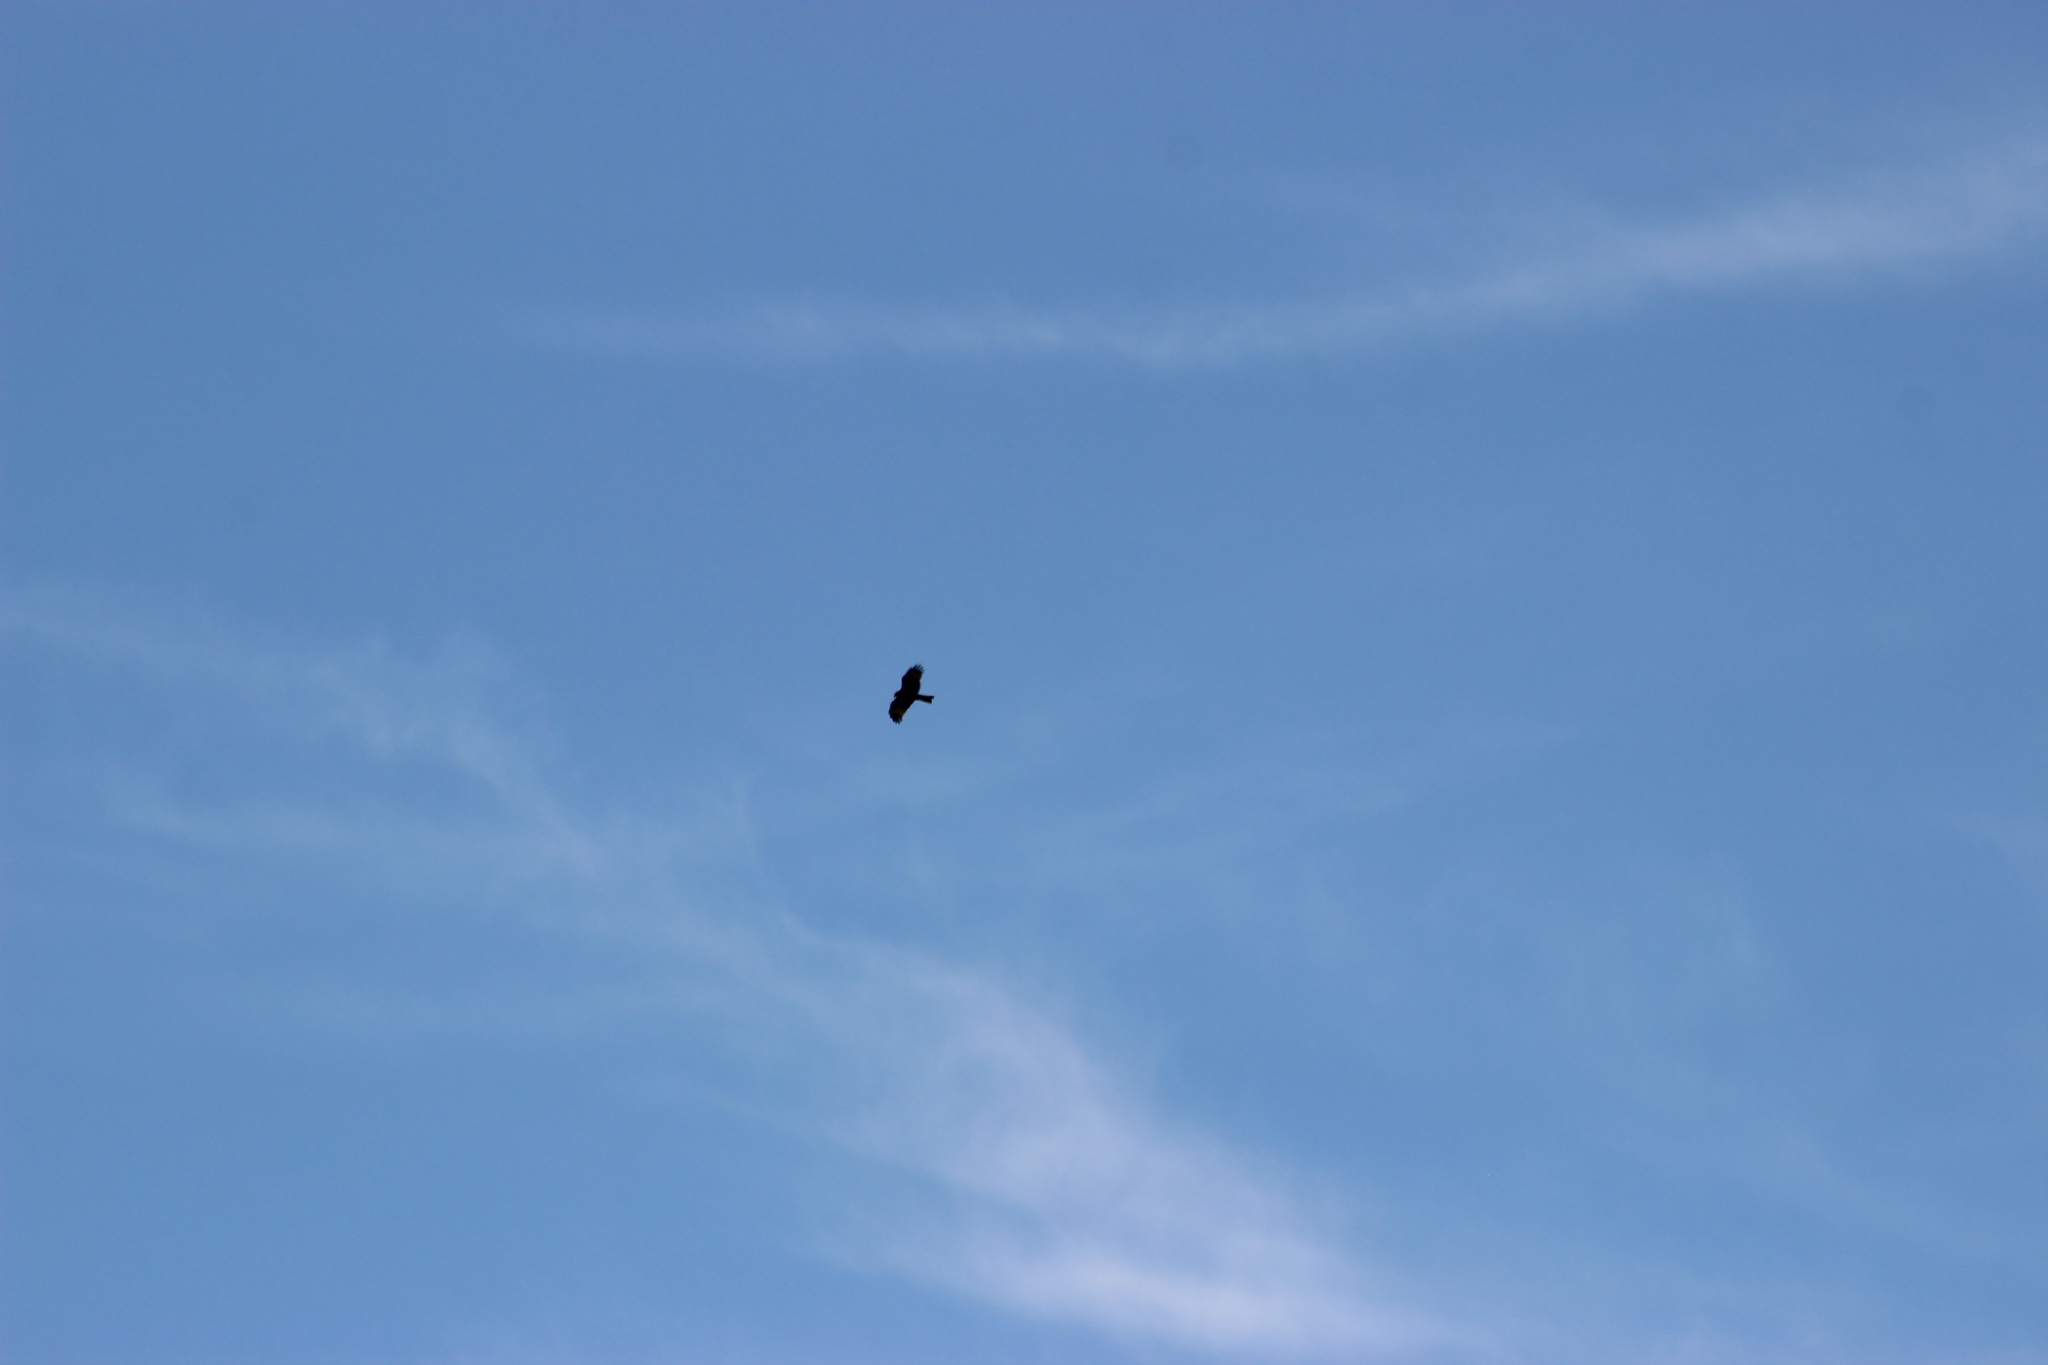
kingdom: Animalia
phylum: Chordata
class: Aves
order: Accipitriformes
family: Accipitridae
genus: Milvus
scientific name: Milvus migrans
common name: Black kite
